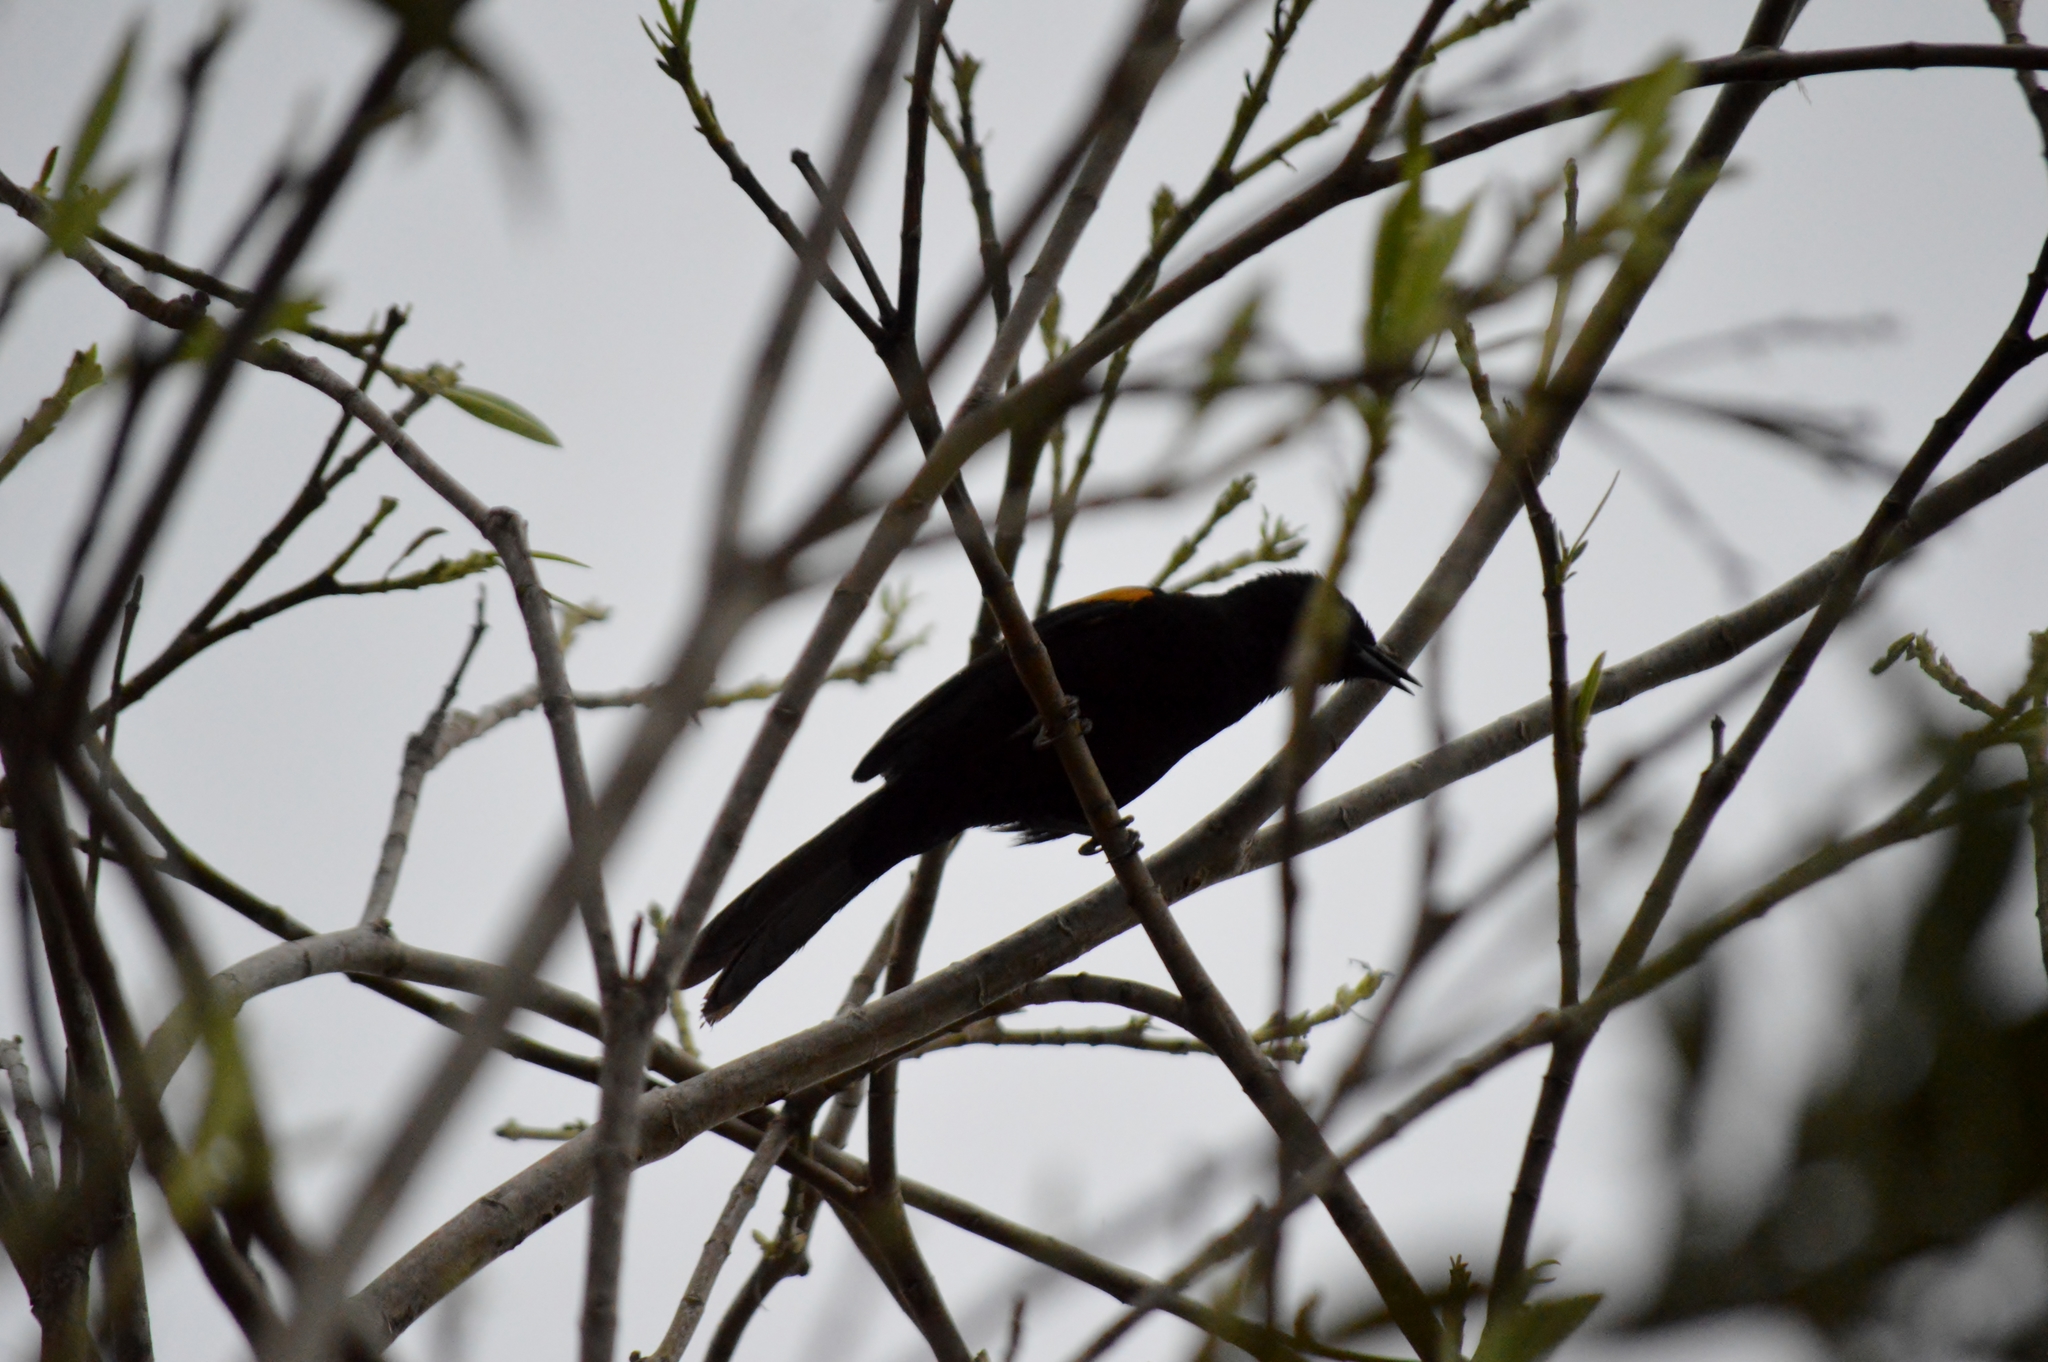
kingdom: Animalia
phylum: Chordata
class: Aves
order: Passeriformes
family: Icteridae
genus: Icterus
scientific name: Icterus cayanensis
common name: Epaulet oriole
